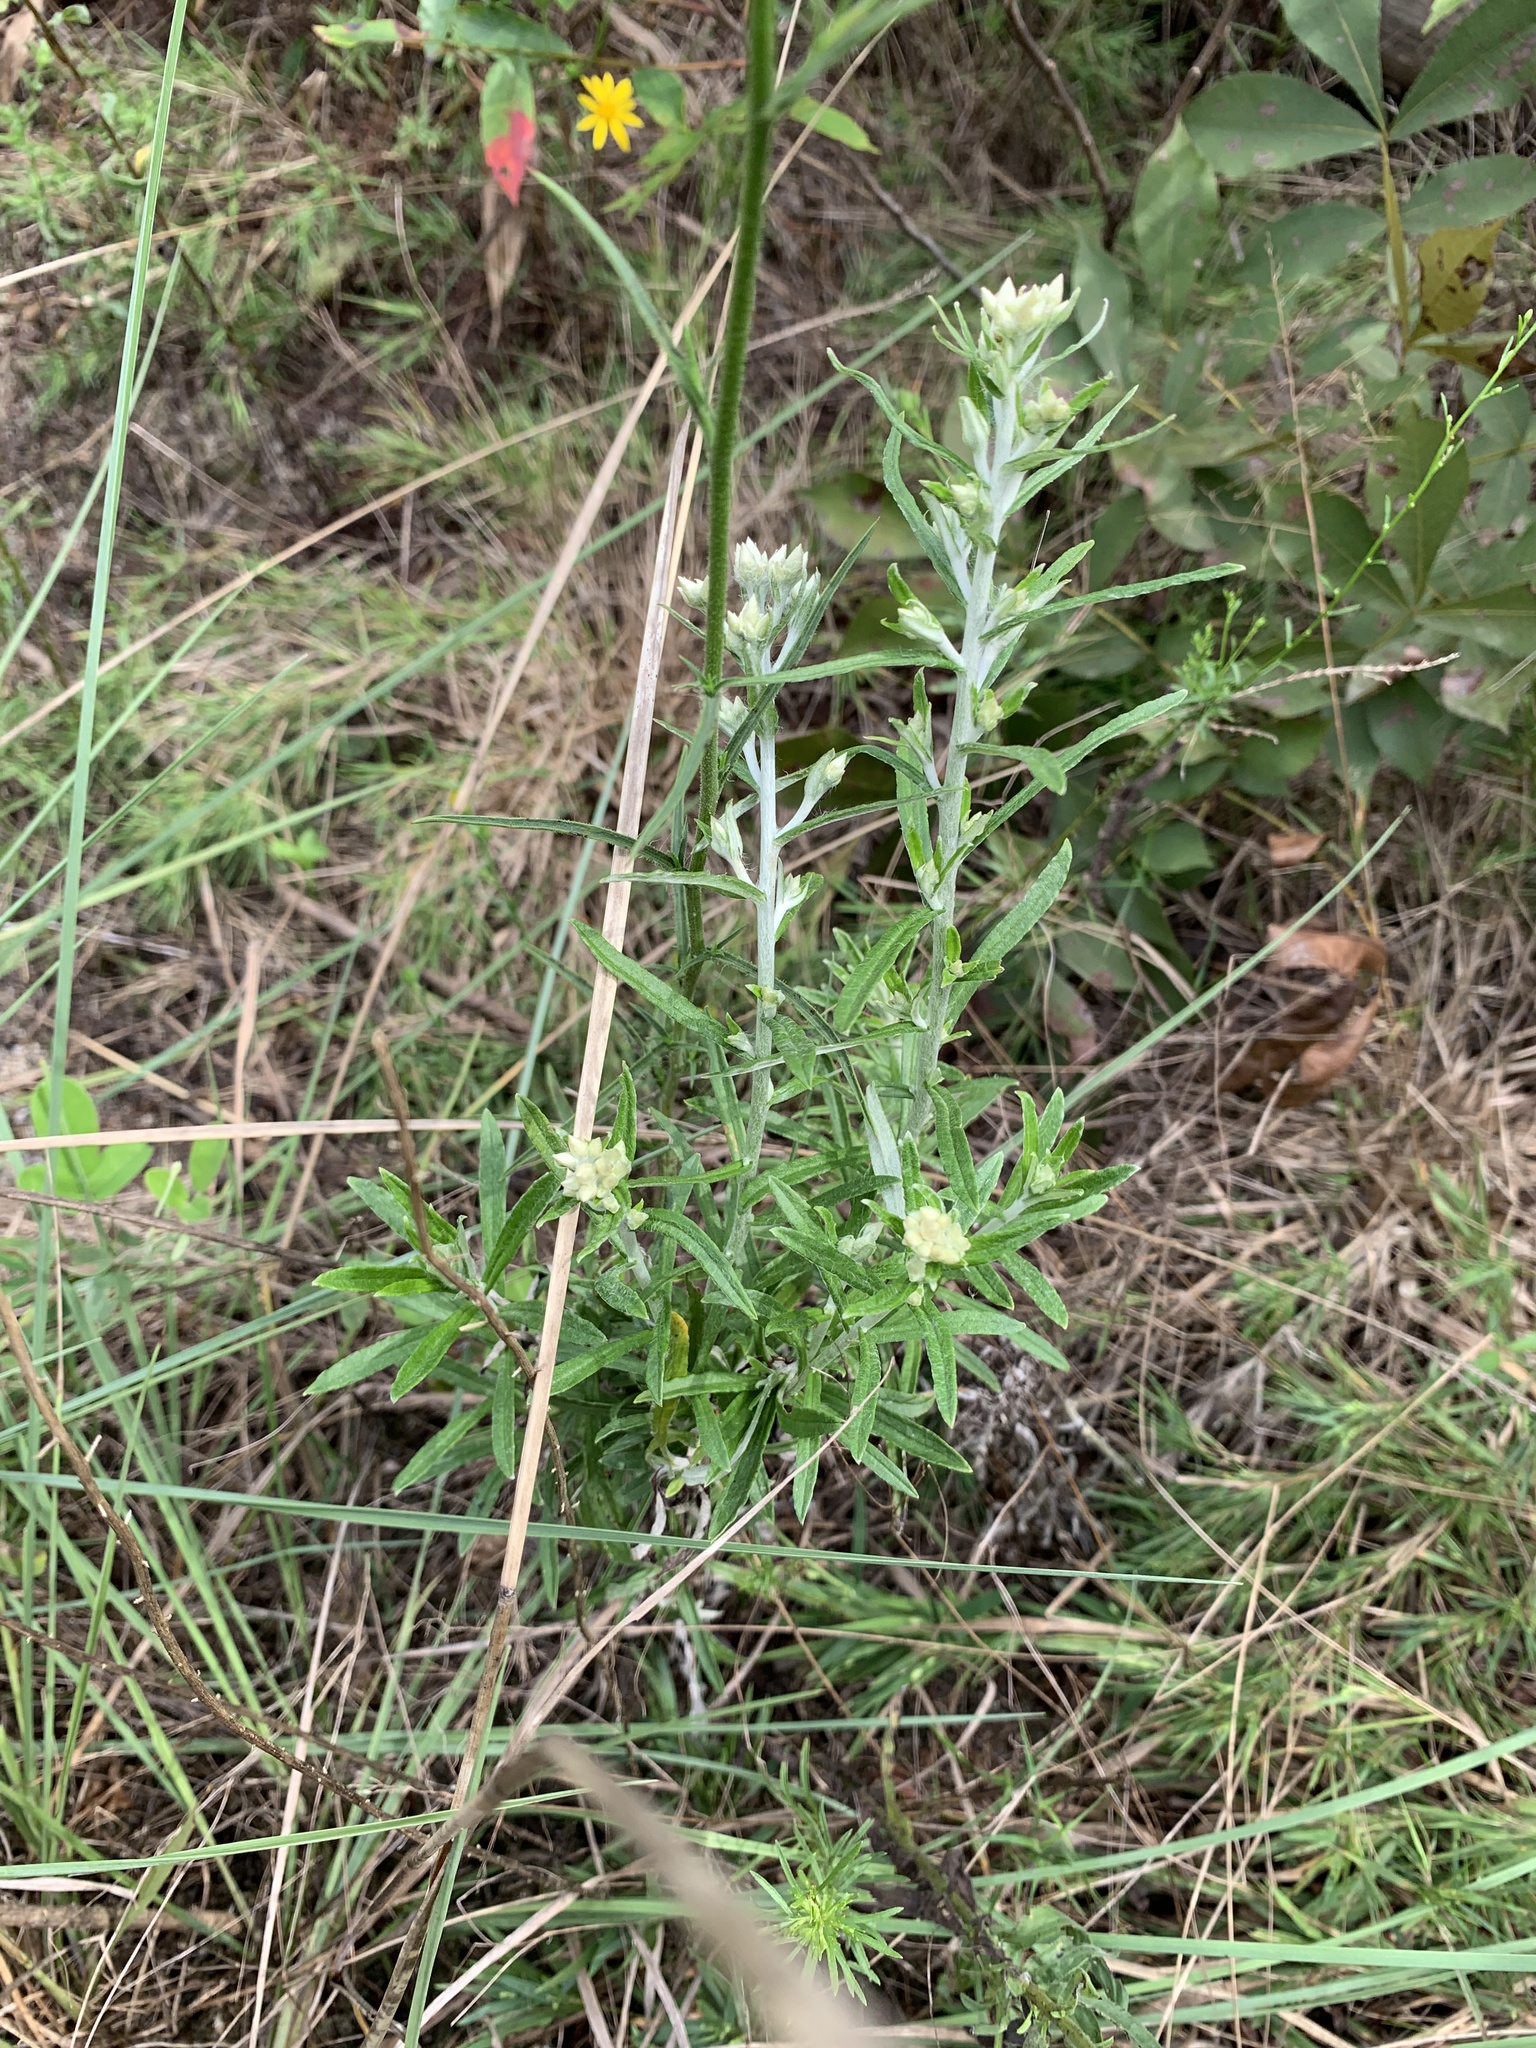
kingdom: Plantae
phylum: Tracheophyta
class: Magnoliopsida
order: Asterales
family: Asteraceae
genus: Pseudognaphalium
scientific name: Pseudognaphalium obtusifolium
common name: Eastern rabbit-tobacco
